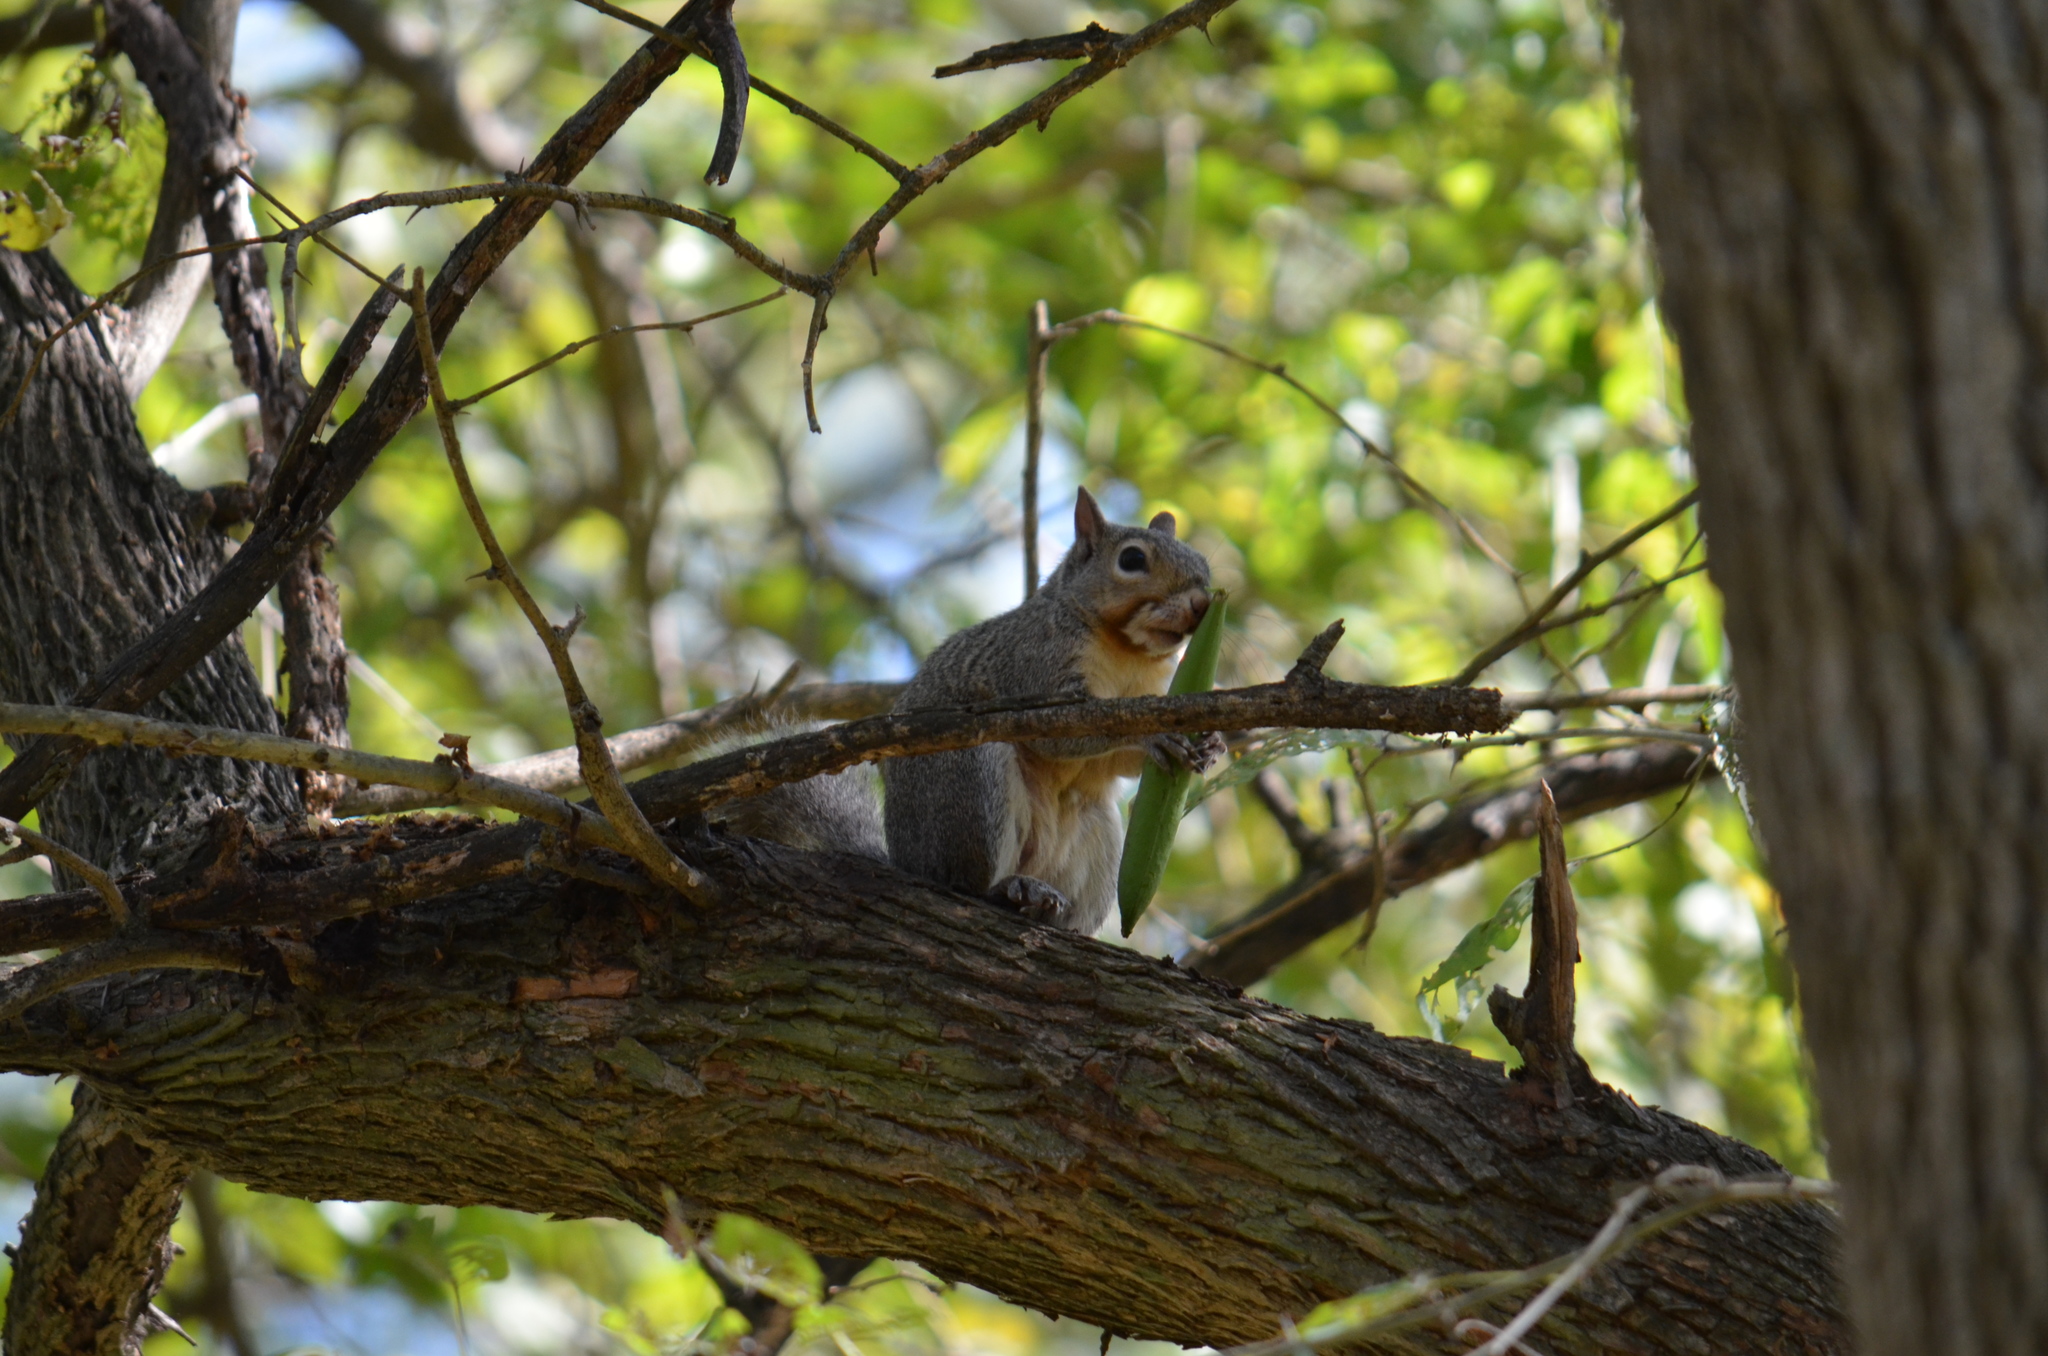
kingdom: Animalia
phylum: Chordata
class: Mammalia
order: Rodentia
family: Sciuridae
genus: Sciurus
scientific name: Sciurus niger
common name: Fox squirrel
